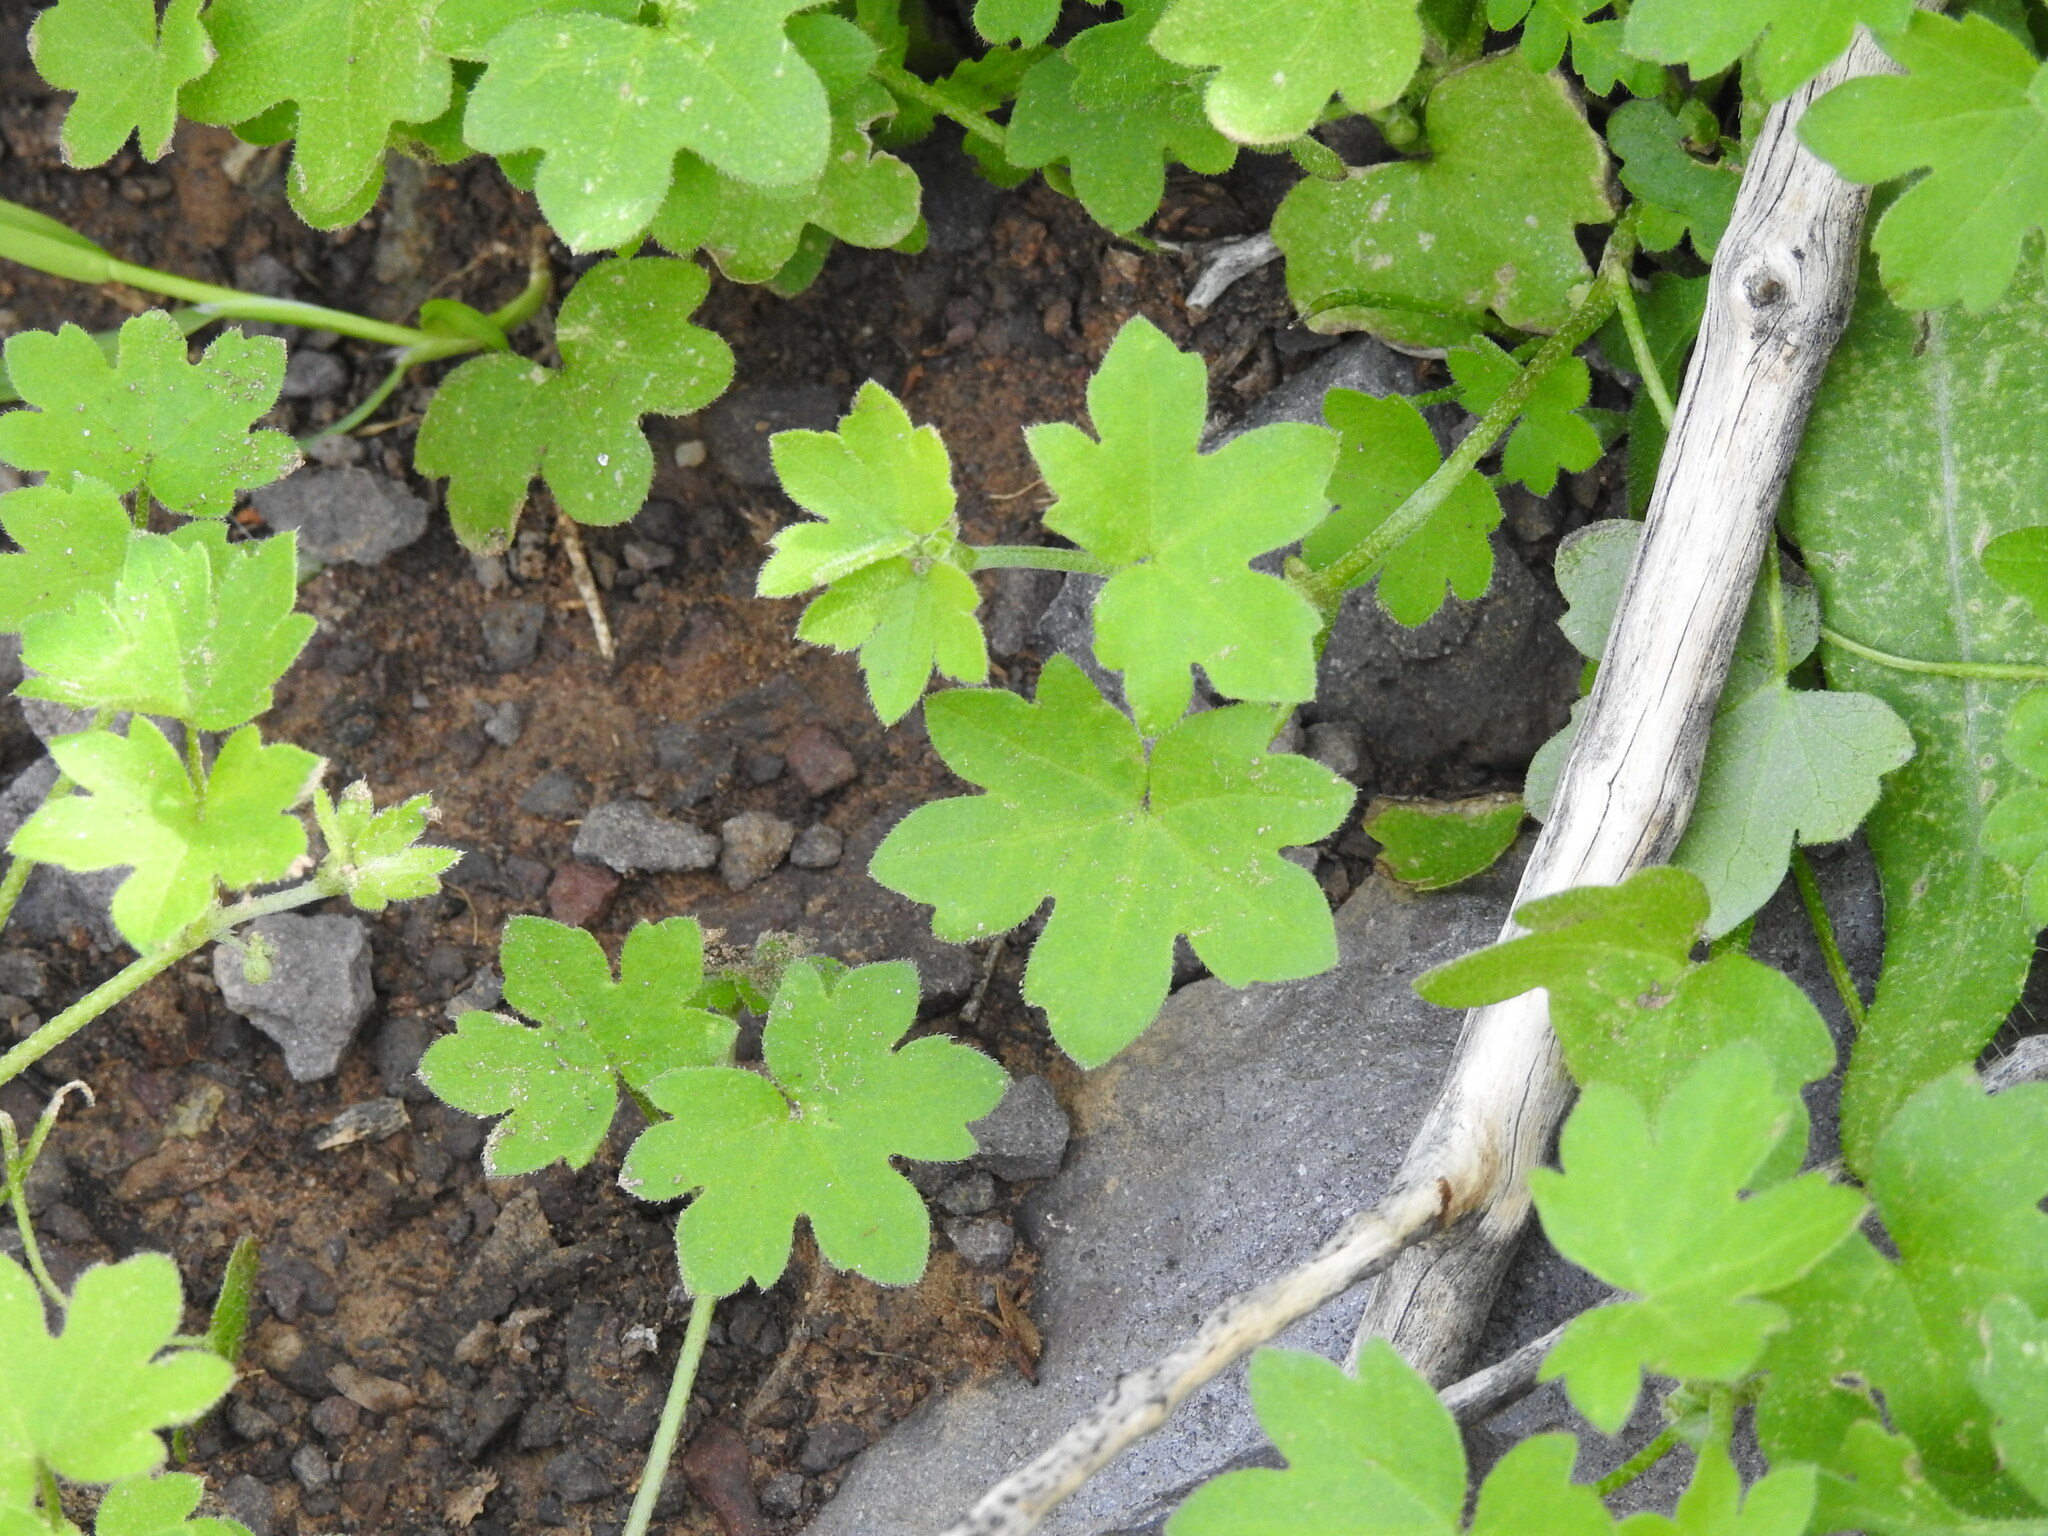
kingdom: Plantae
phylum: Tracheophyta
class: Magnoliopsida
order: Apiales
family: Apiaceae
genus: Bowlesia
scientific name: Bowlesia incana
